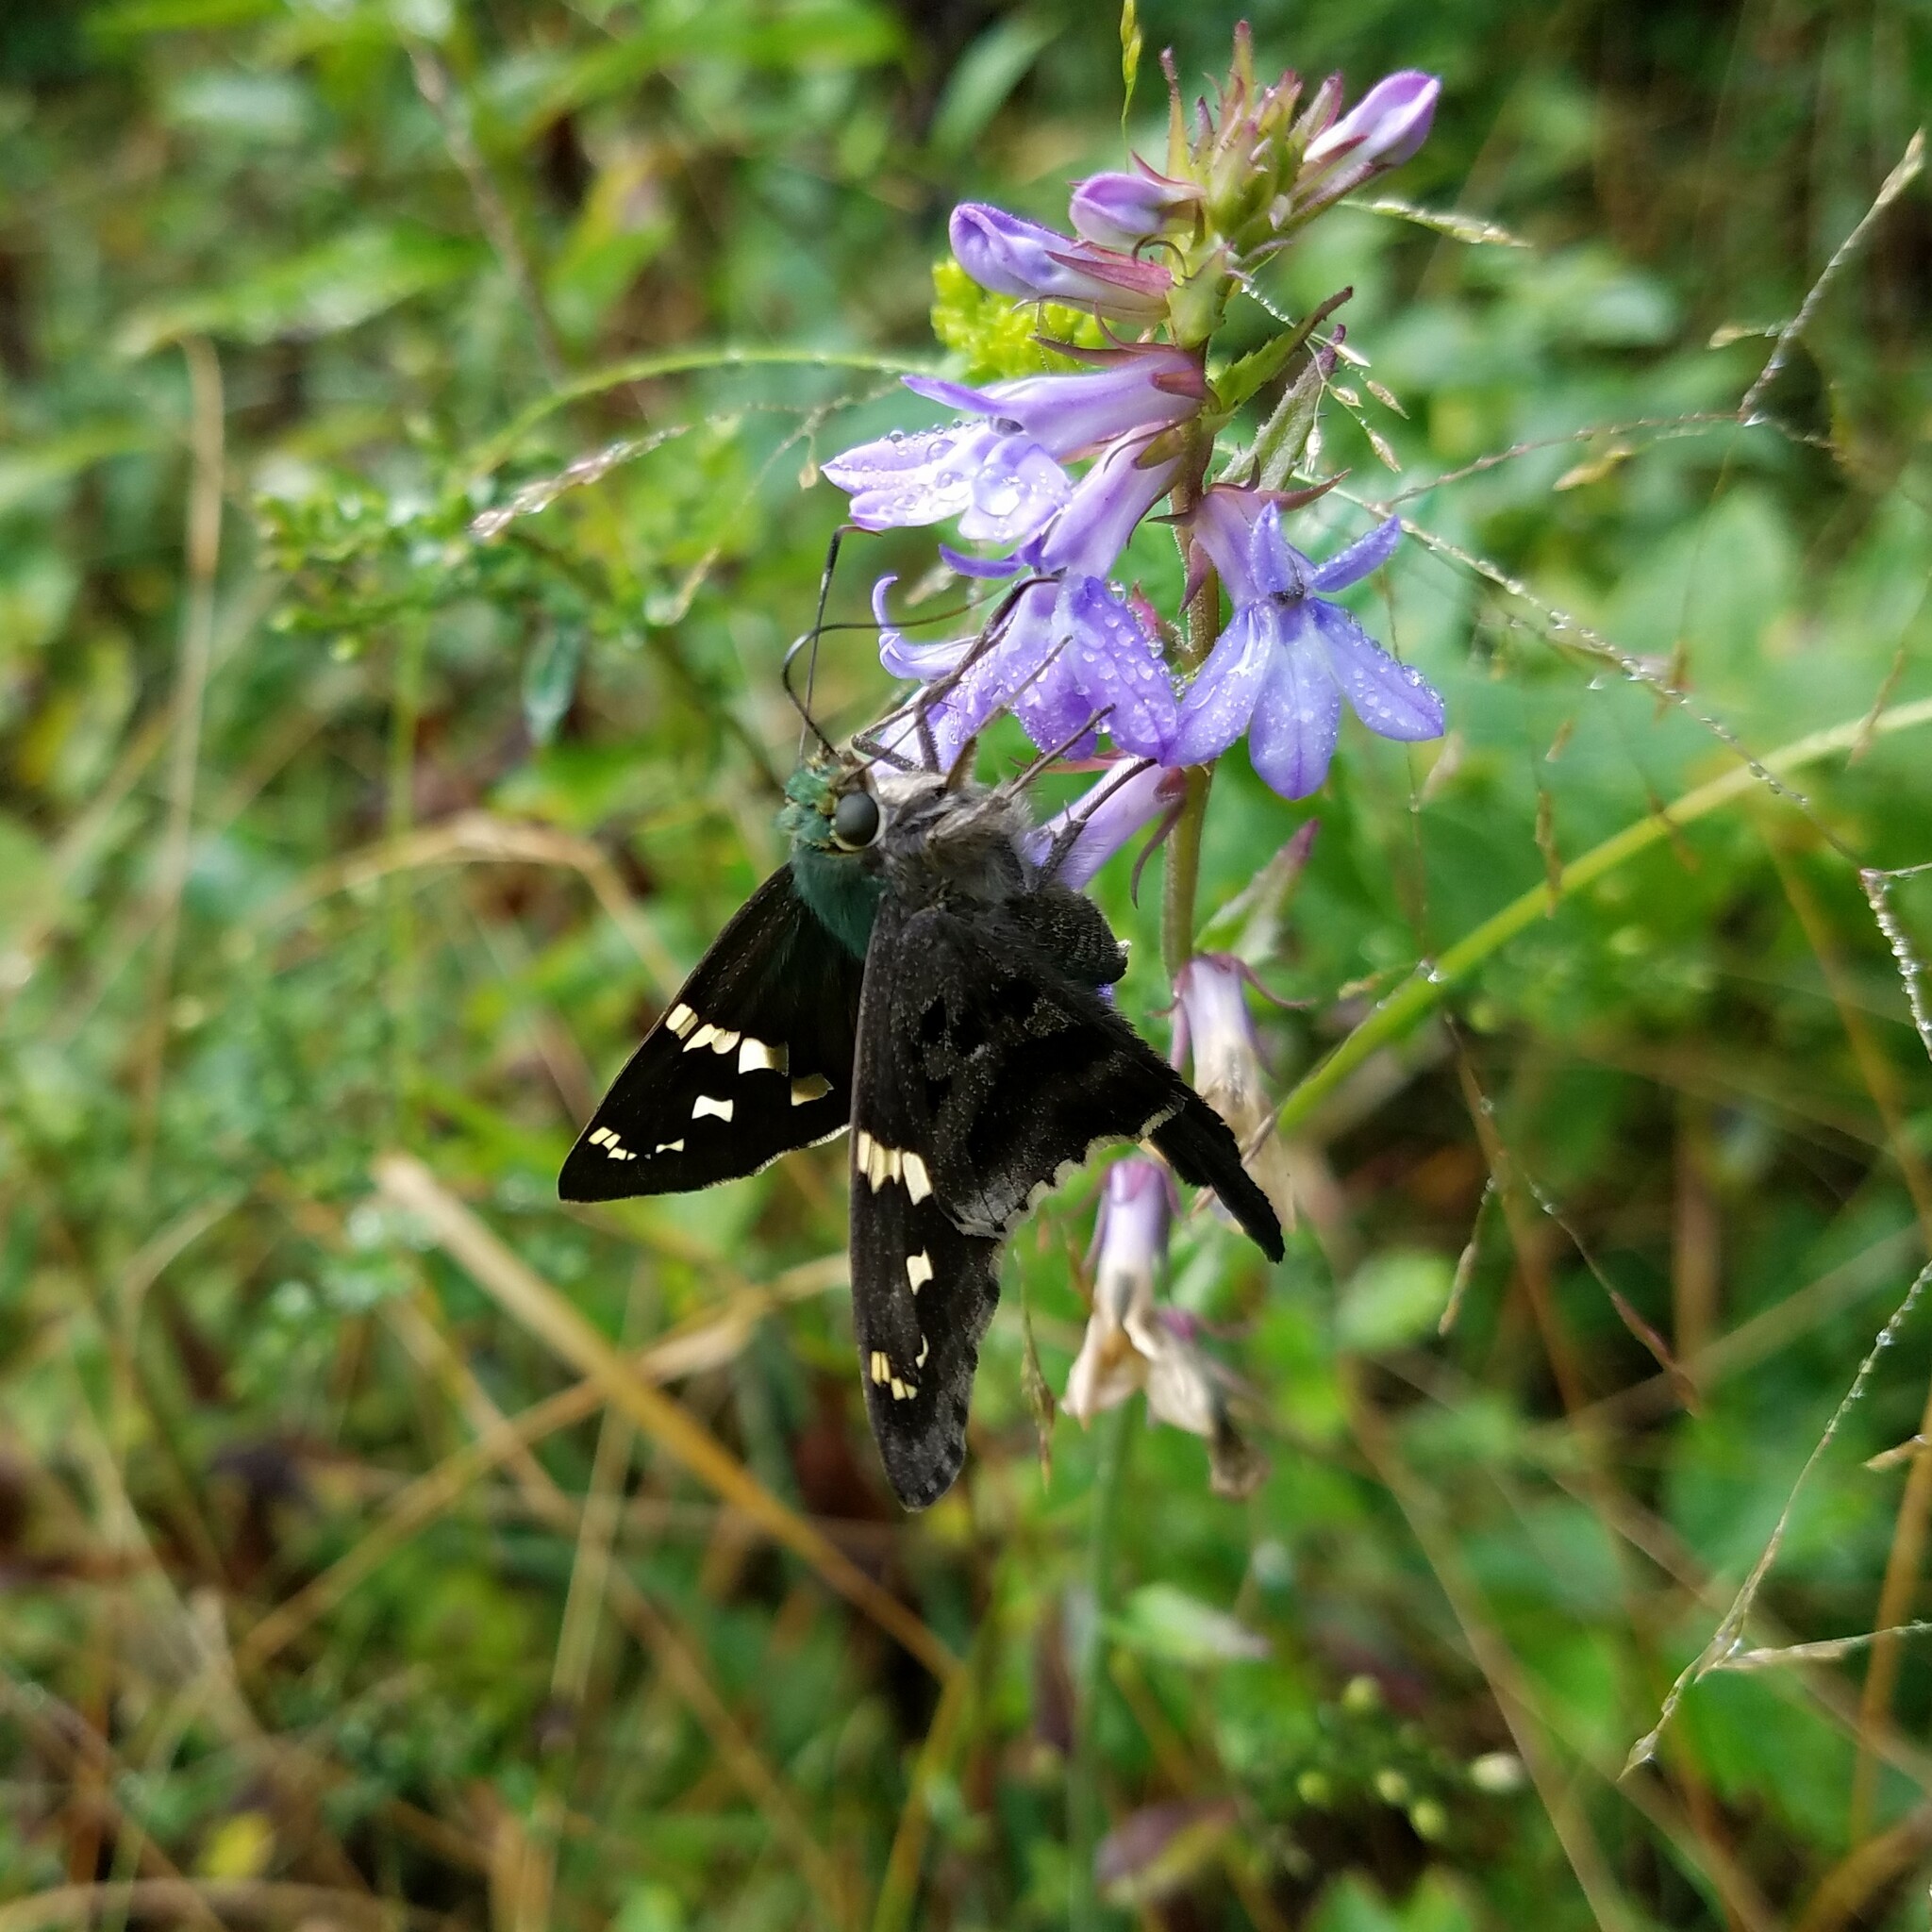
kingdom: Animalia
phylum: Arthropoda
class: Insecta
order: Lepidoptera
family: Hesperiidae
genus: Urbanus
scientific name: Urbanus proteus
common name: Long-tailed skipper
